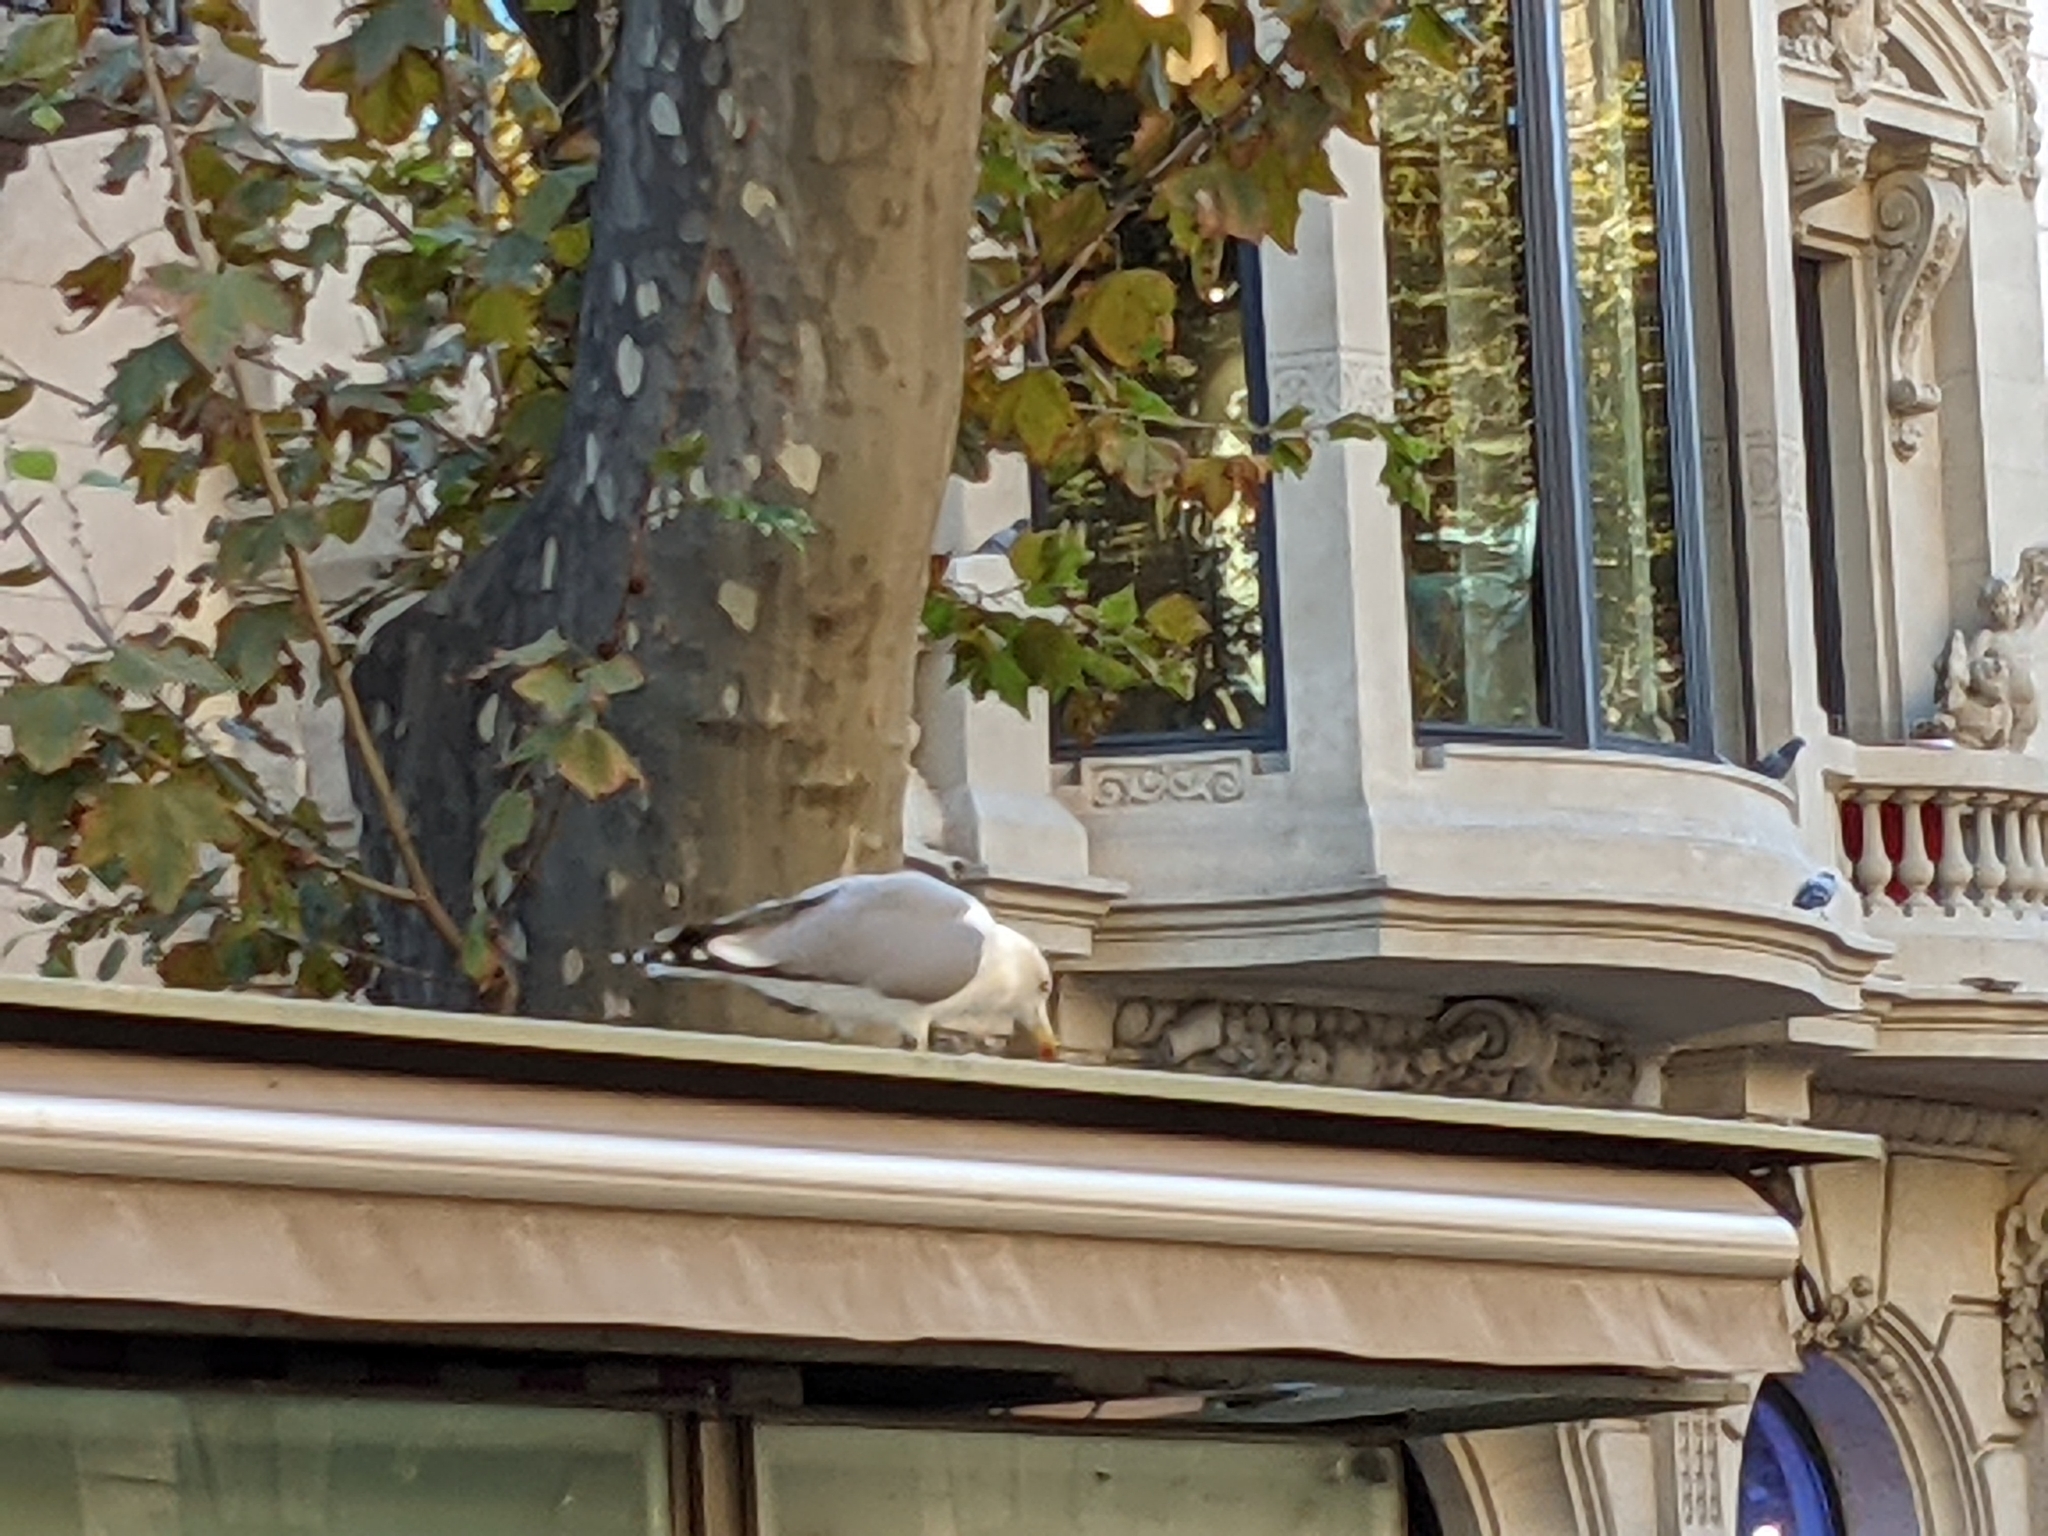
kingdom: Animalia
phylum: Chordata
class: Aves
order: Charadriiformes
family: Laridae
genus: Larus
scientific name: Larus michahellis
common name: Yellow-legged gull
